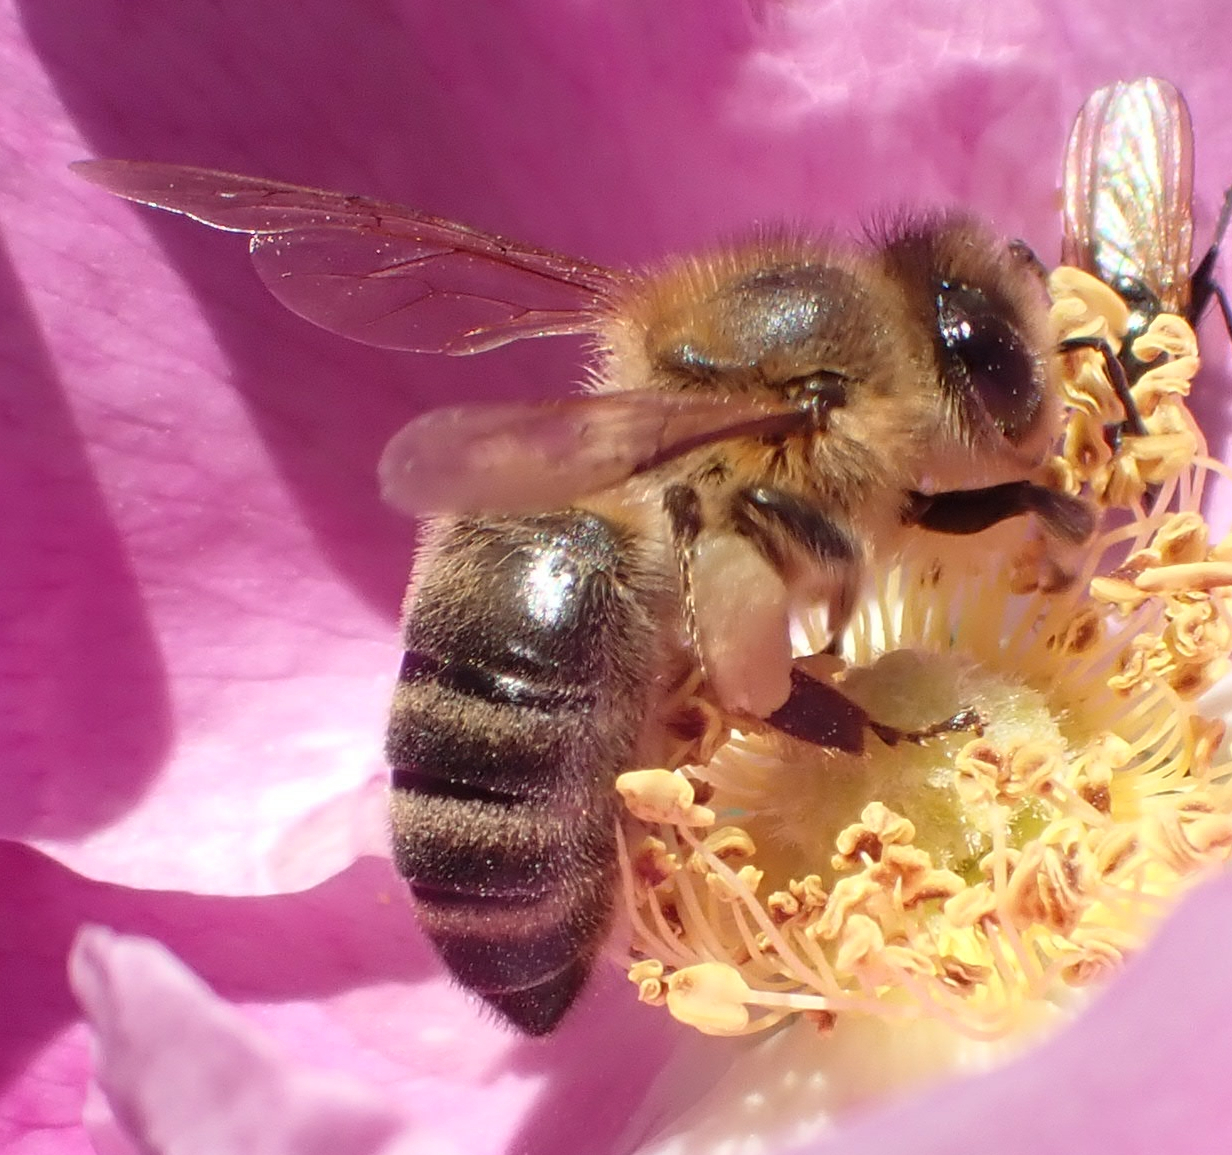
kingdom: Animalia
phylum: Arthropoda
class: Insecta
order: Hymenoptera
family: Apidae
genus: Apis
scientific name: Apis mellifera
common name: Honey bee
